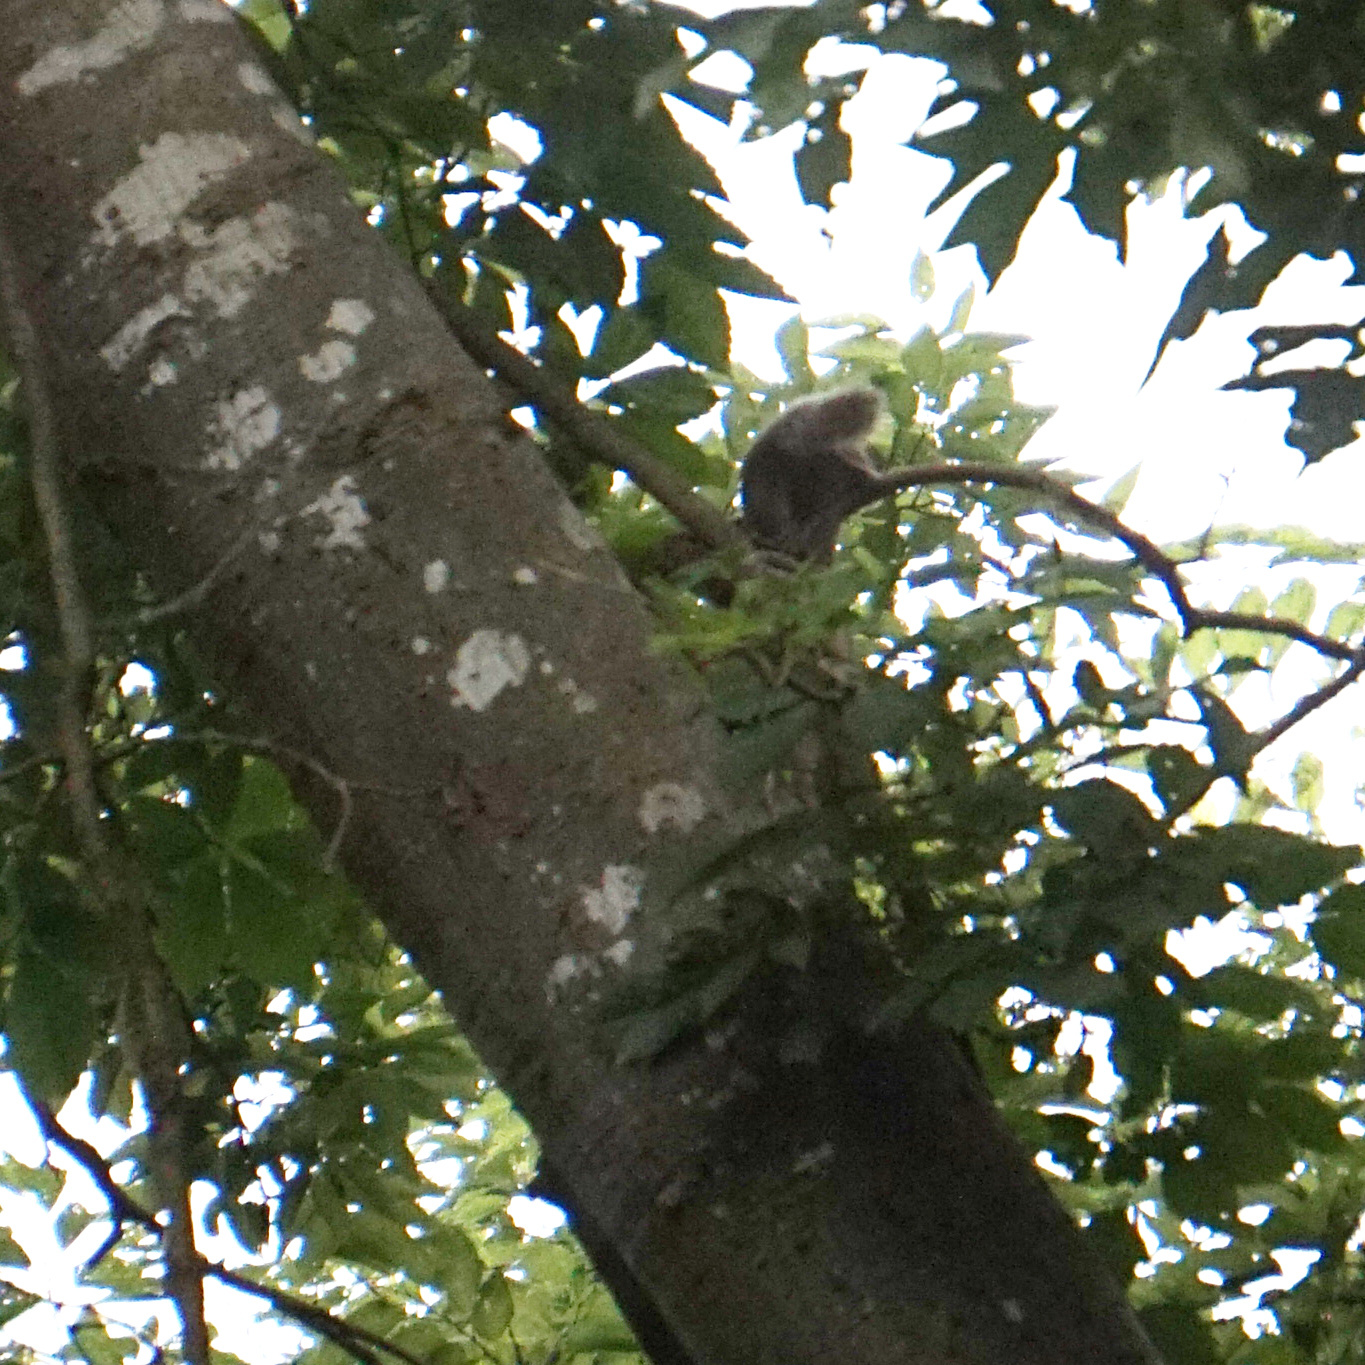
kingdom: Animalia
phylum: Chordata
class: Mammalia
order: Rodentia
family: Sciuridae
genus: Sciurus
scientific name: Sciurus carolinensis
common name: Eastern gray squirrel
